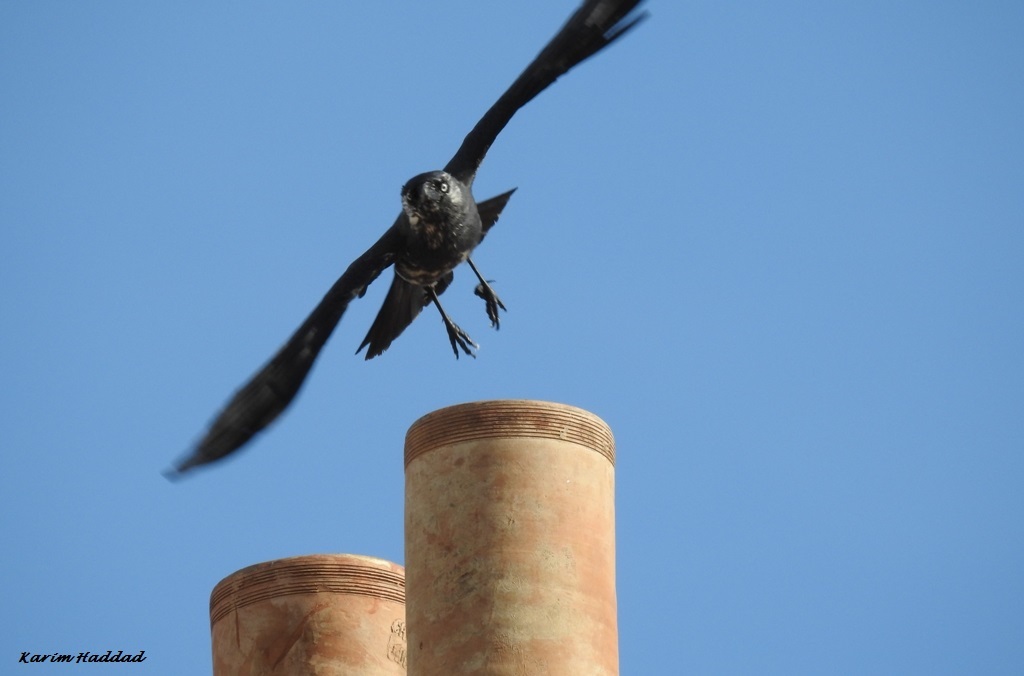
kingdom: Animalia
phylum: Chordata
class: Aves
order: Passeriformes
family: Corvidae
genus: Coloeus
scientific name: Coloeus monedula
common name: Western jackdaw
